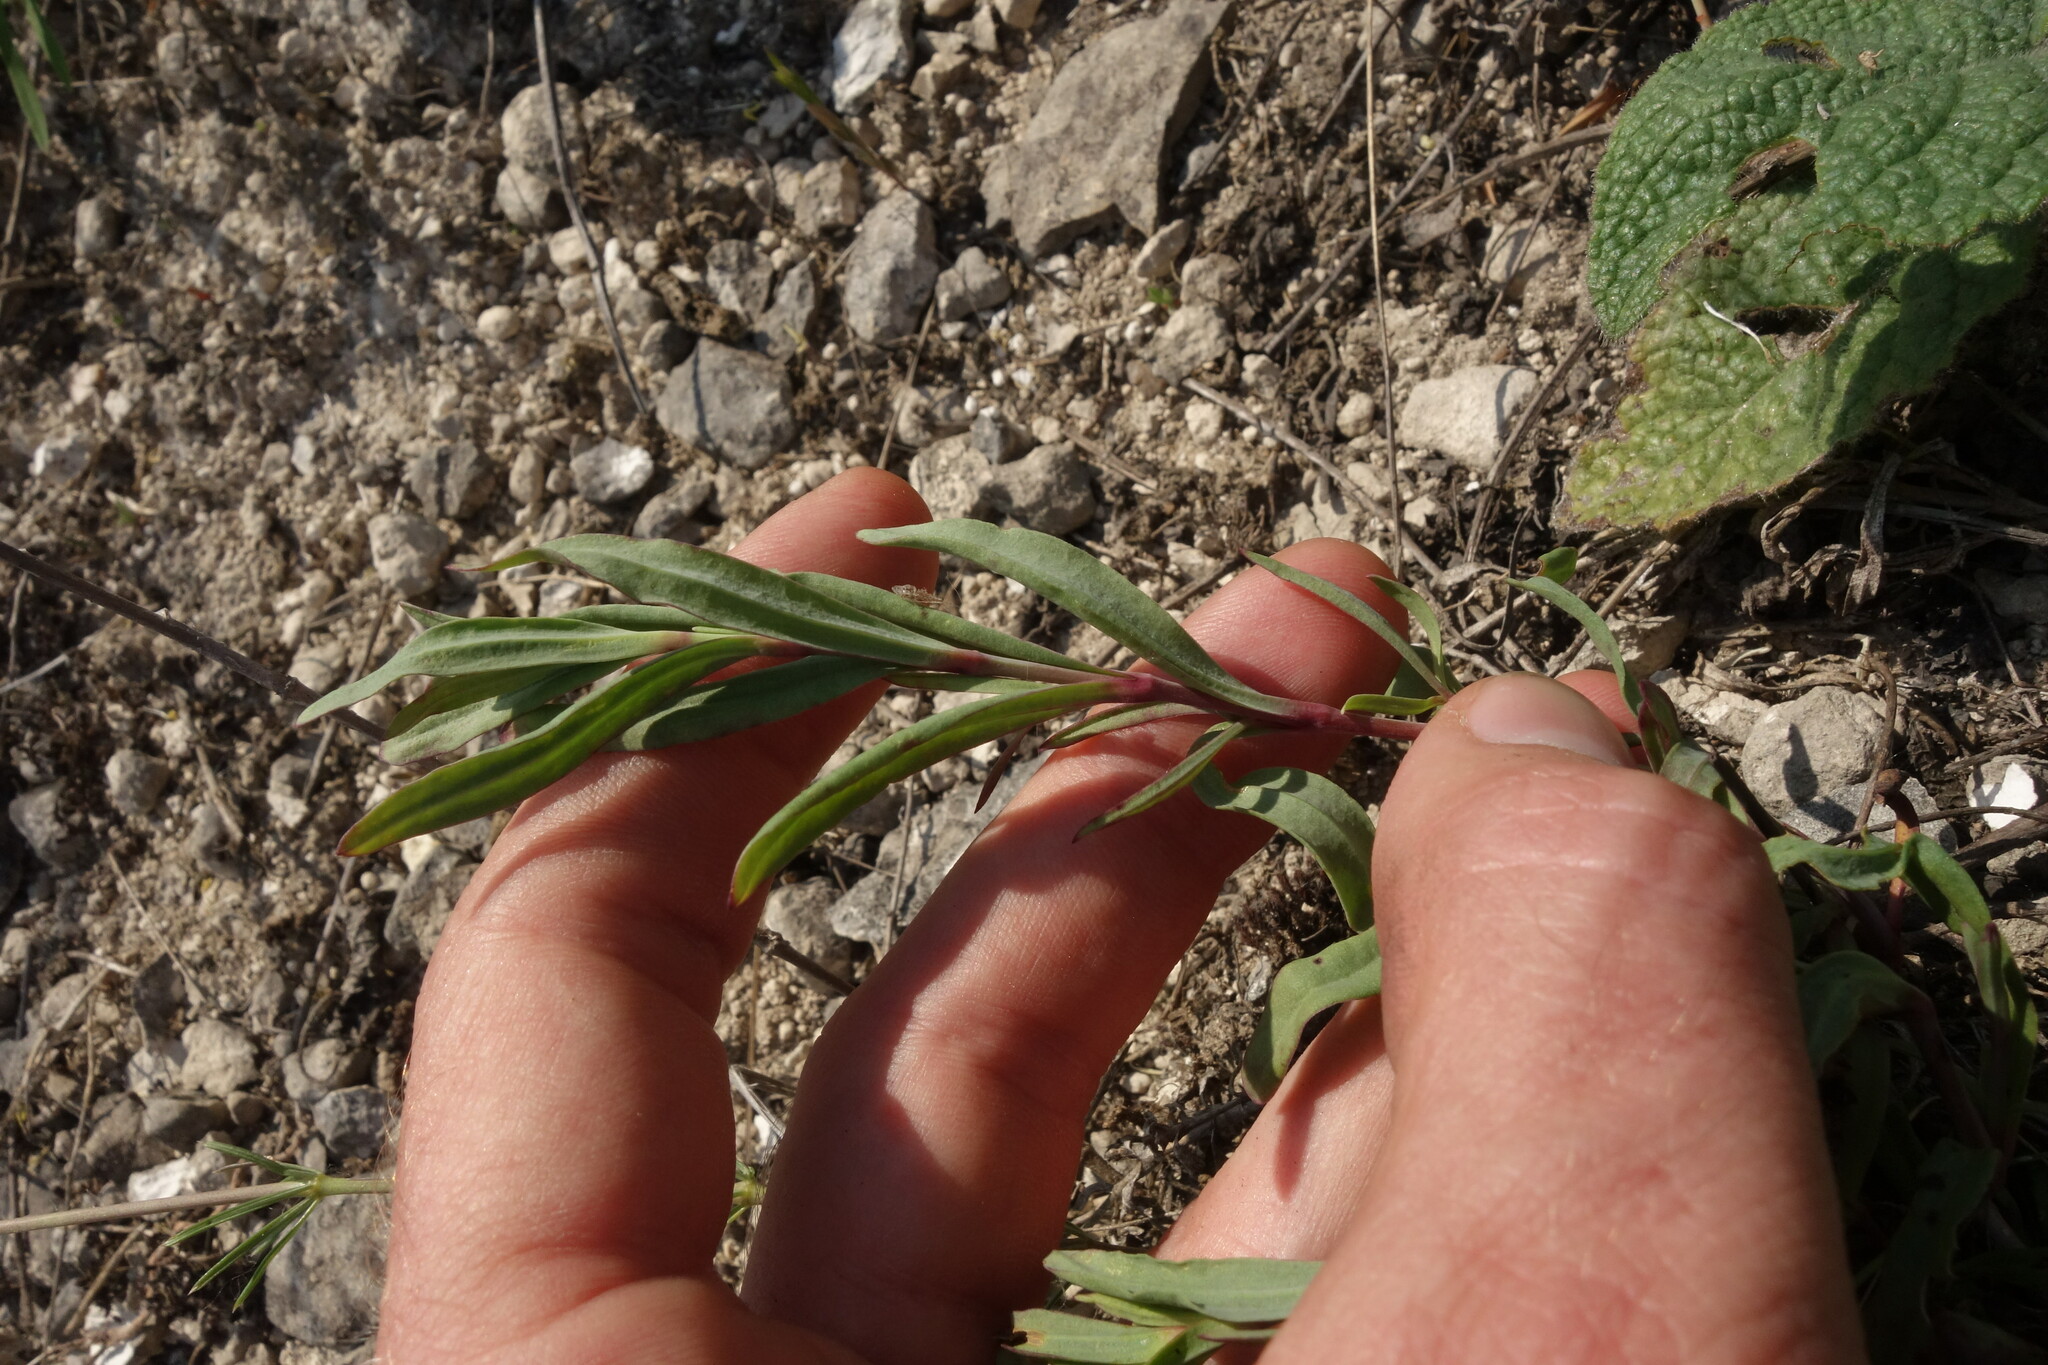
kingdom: Plantae
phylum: Tracheophyta
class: Magnoliopsida
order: Caryophyllales
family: Caryophyllaceae
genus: Gypsophila
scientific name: Gypsophila altissima
